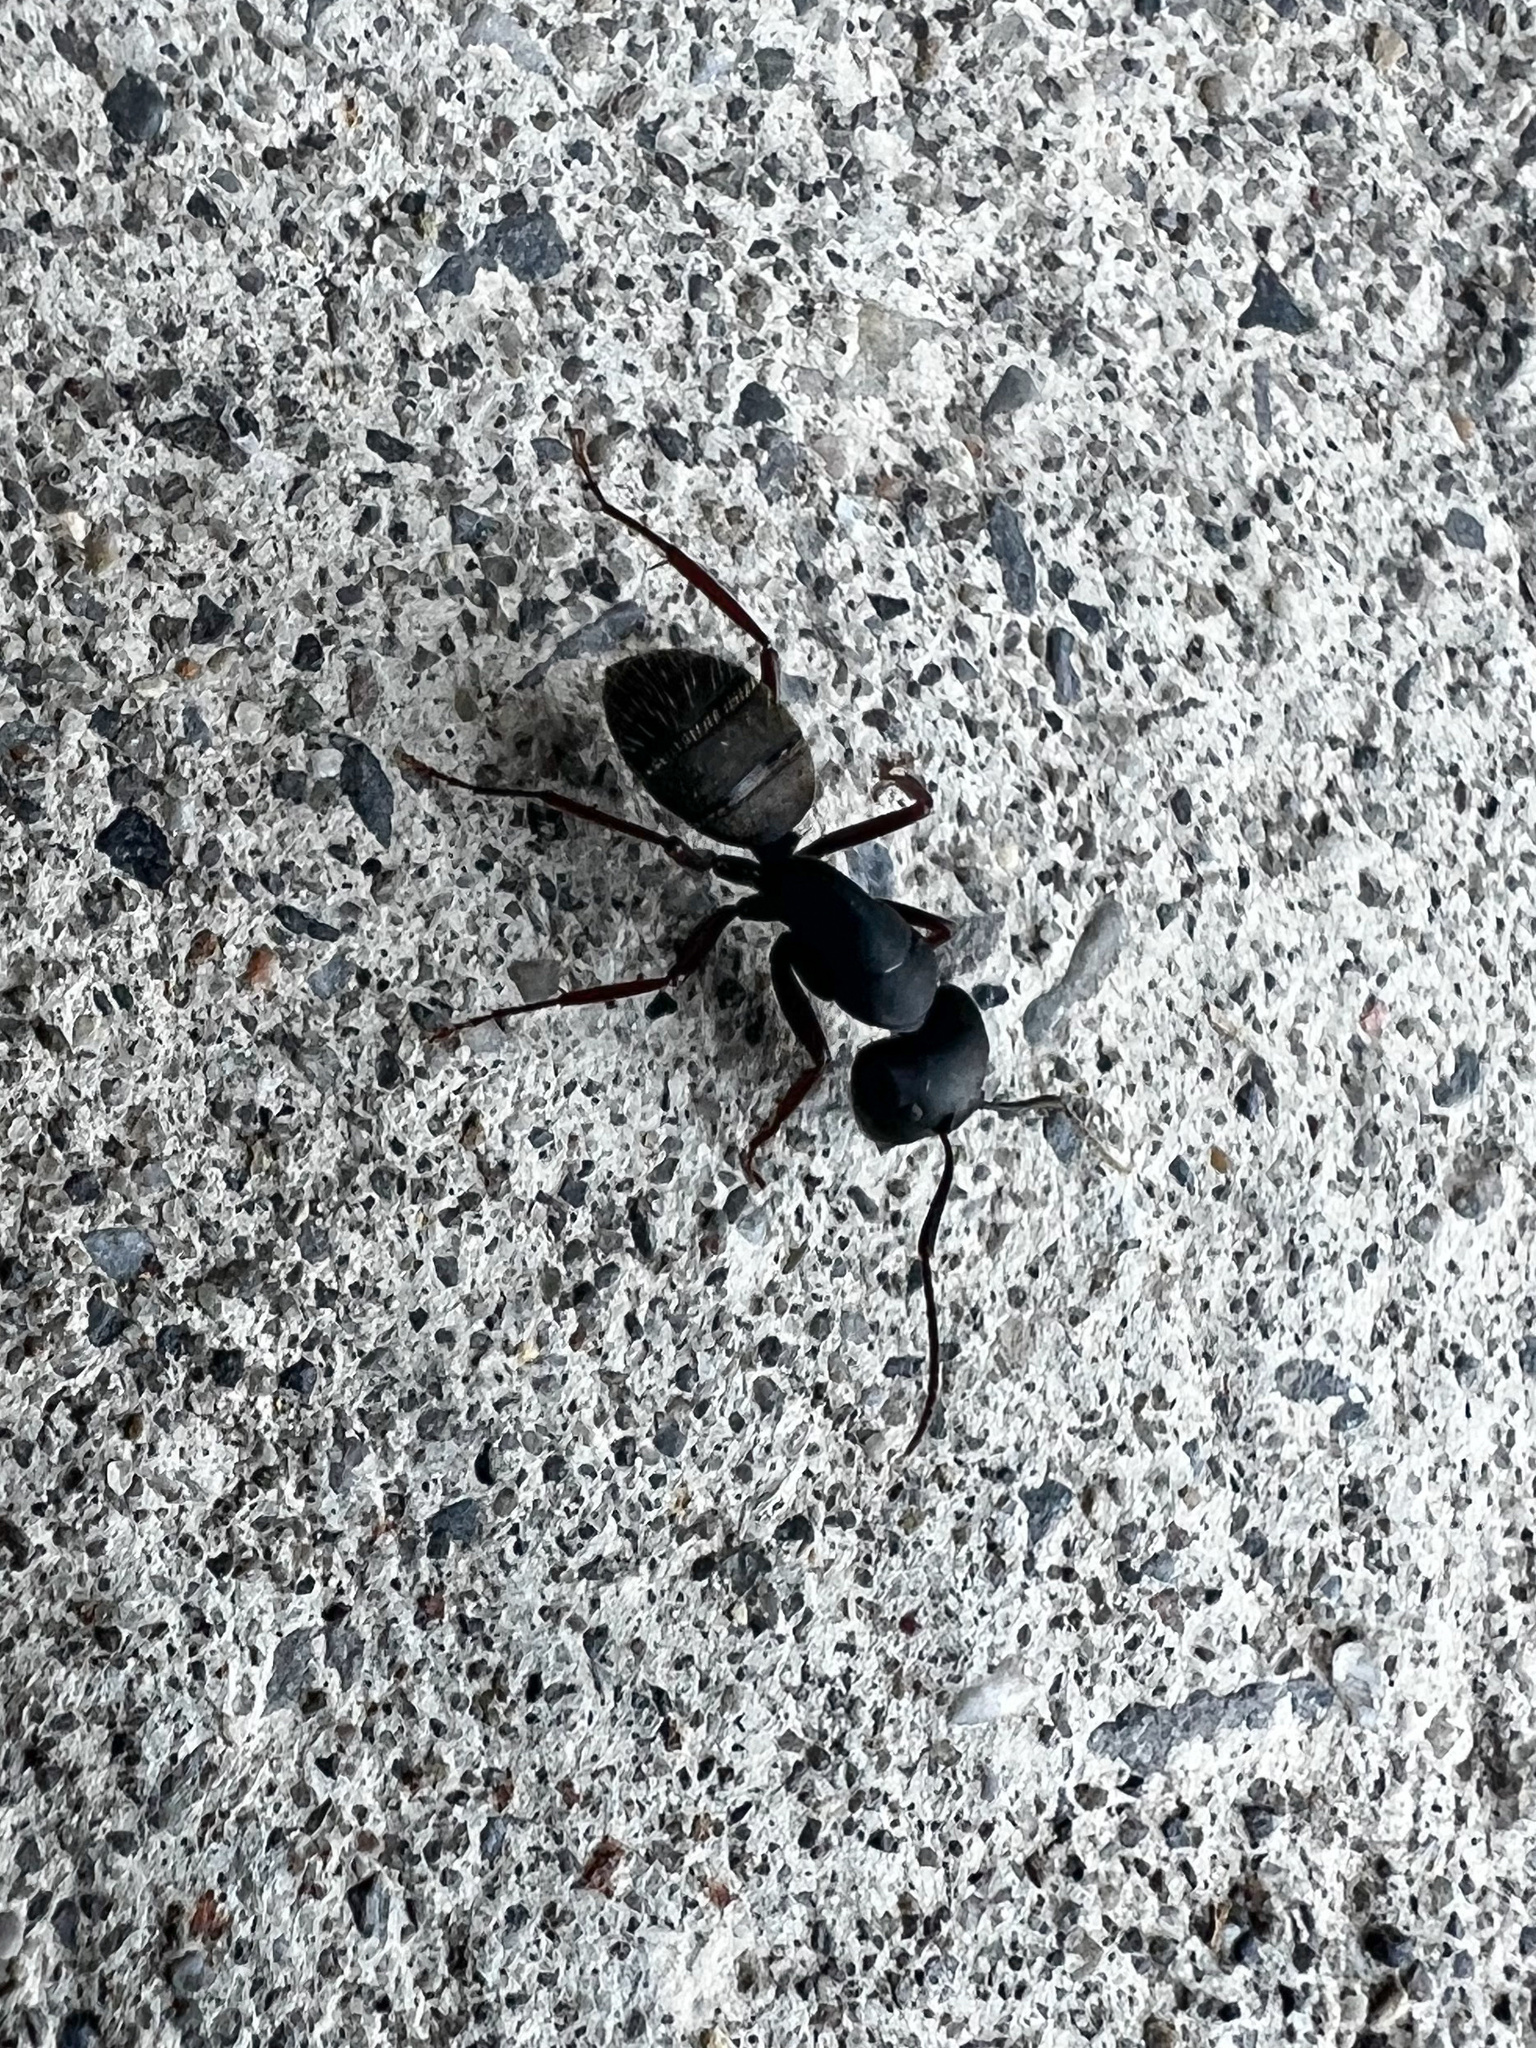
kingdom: Animalia
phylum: Arthropoda
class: Insecta
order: Hymenoptera
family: Formicidae
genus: Camponotus
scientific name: Camponotus modoc
